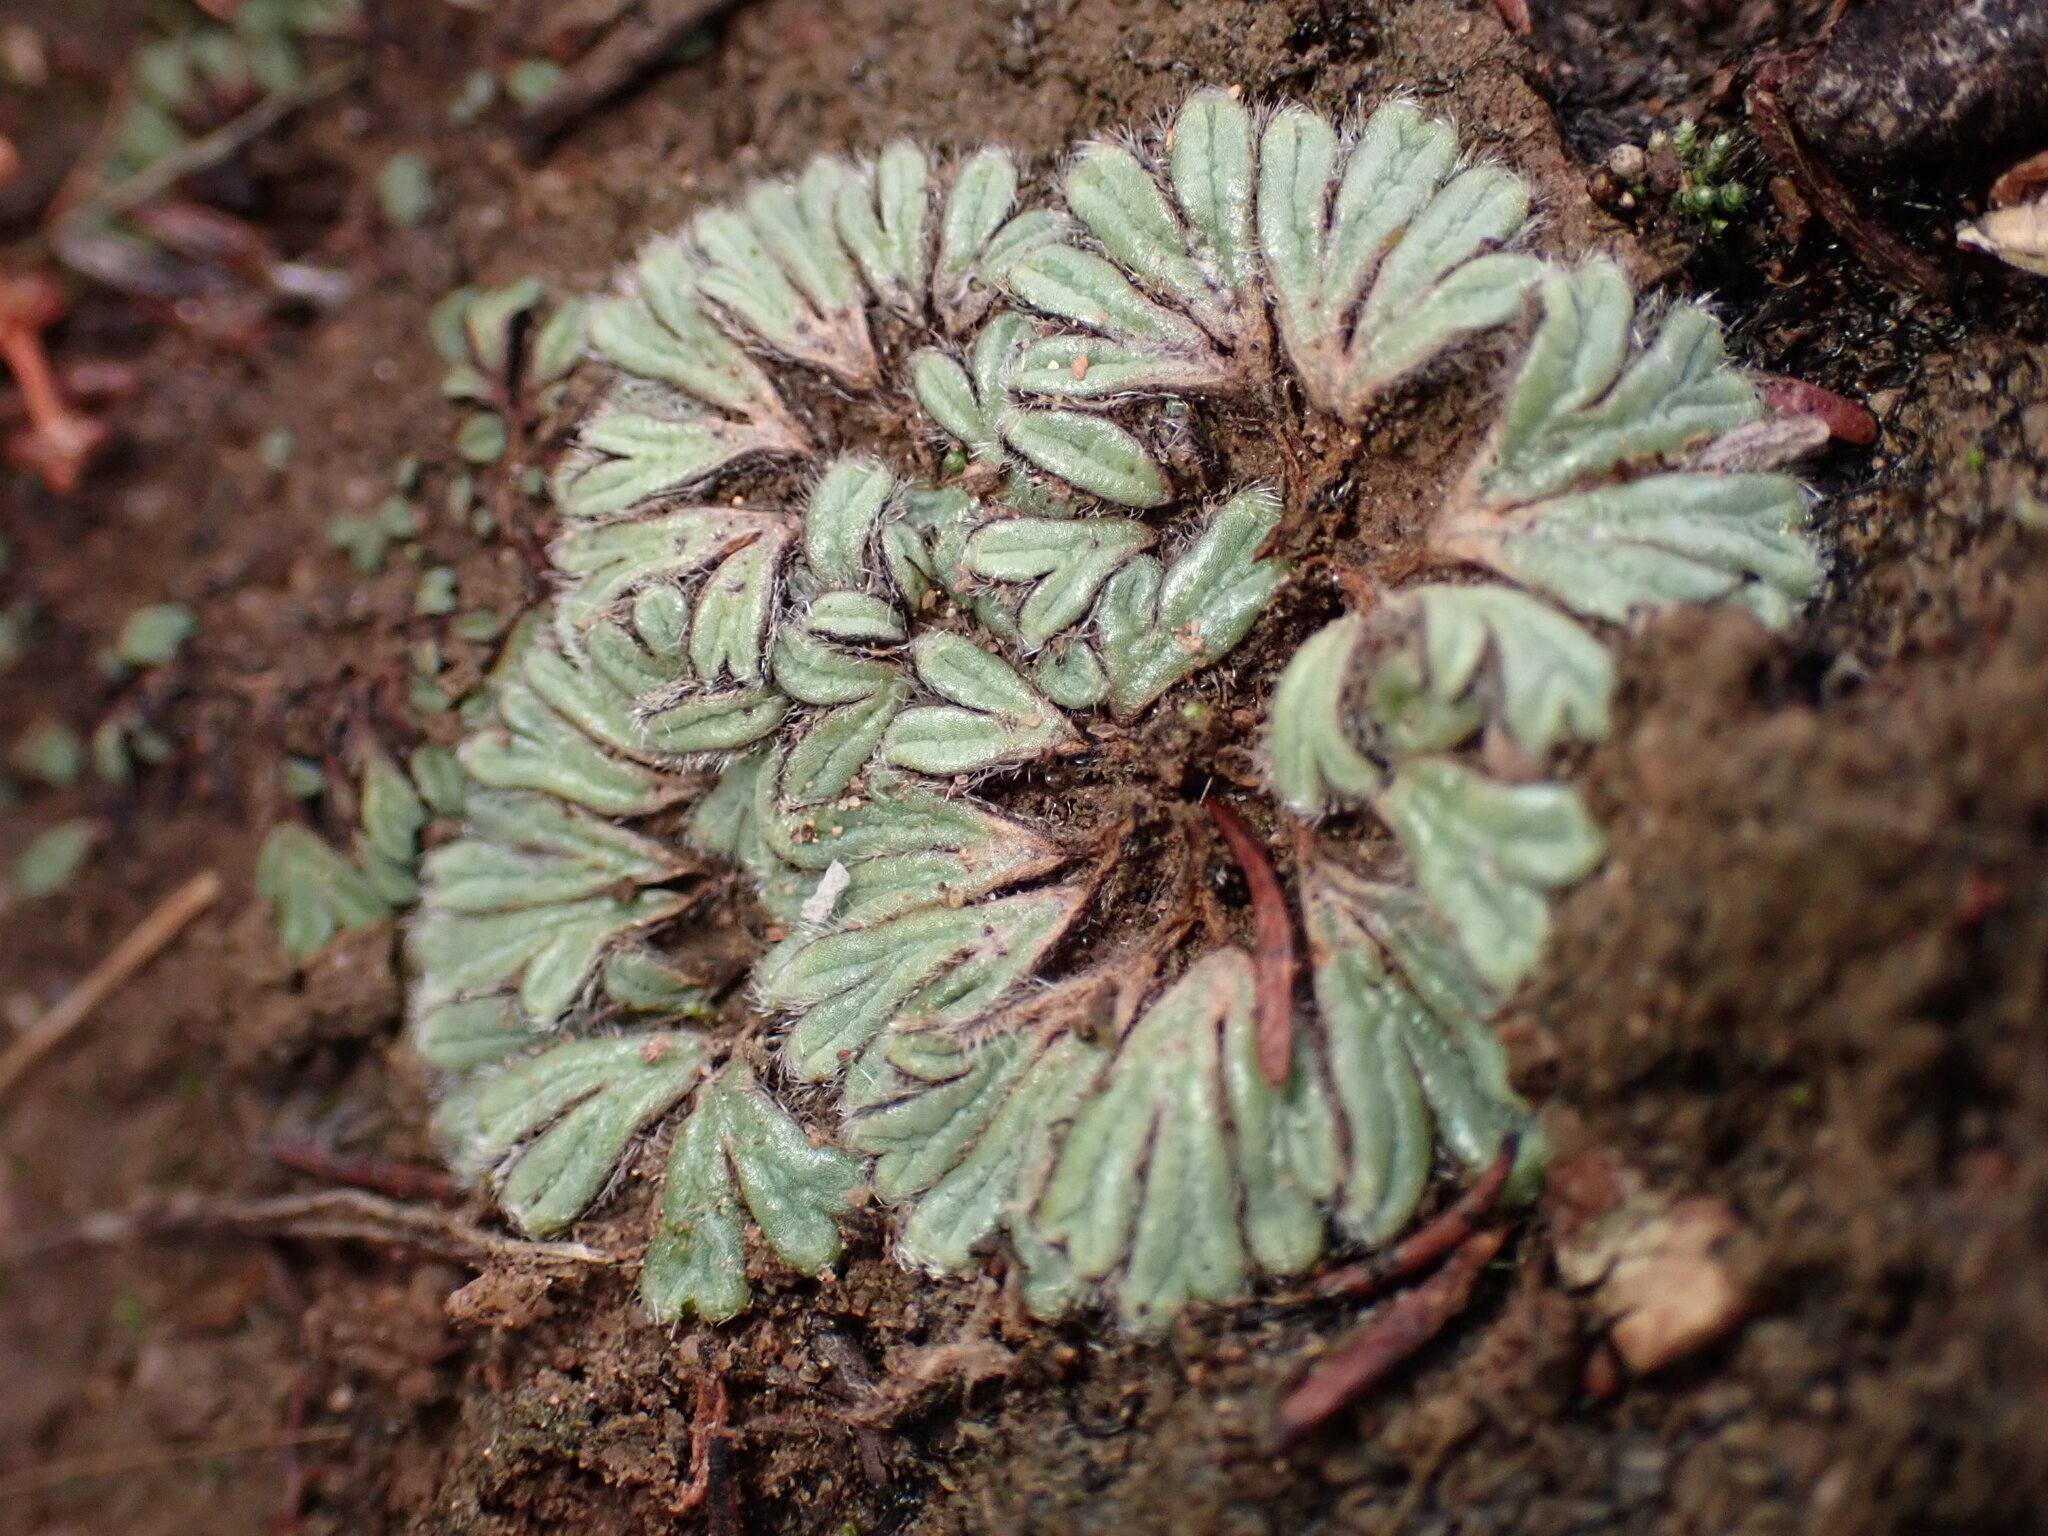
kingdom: Plantae
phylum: Marchantiophyta
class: Marchantiopsida
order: Marchantiales
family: Ricciaceae
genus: Riccia
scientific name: Riccia trichocarpa
